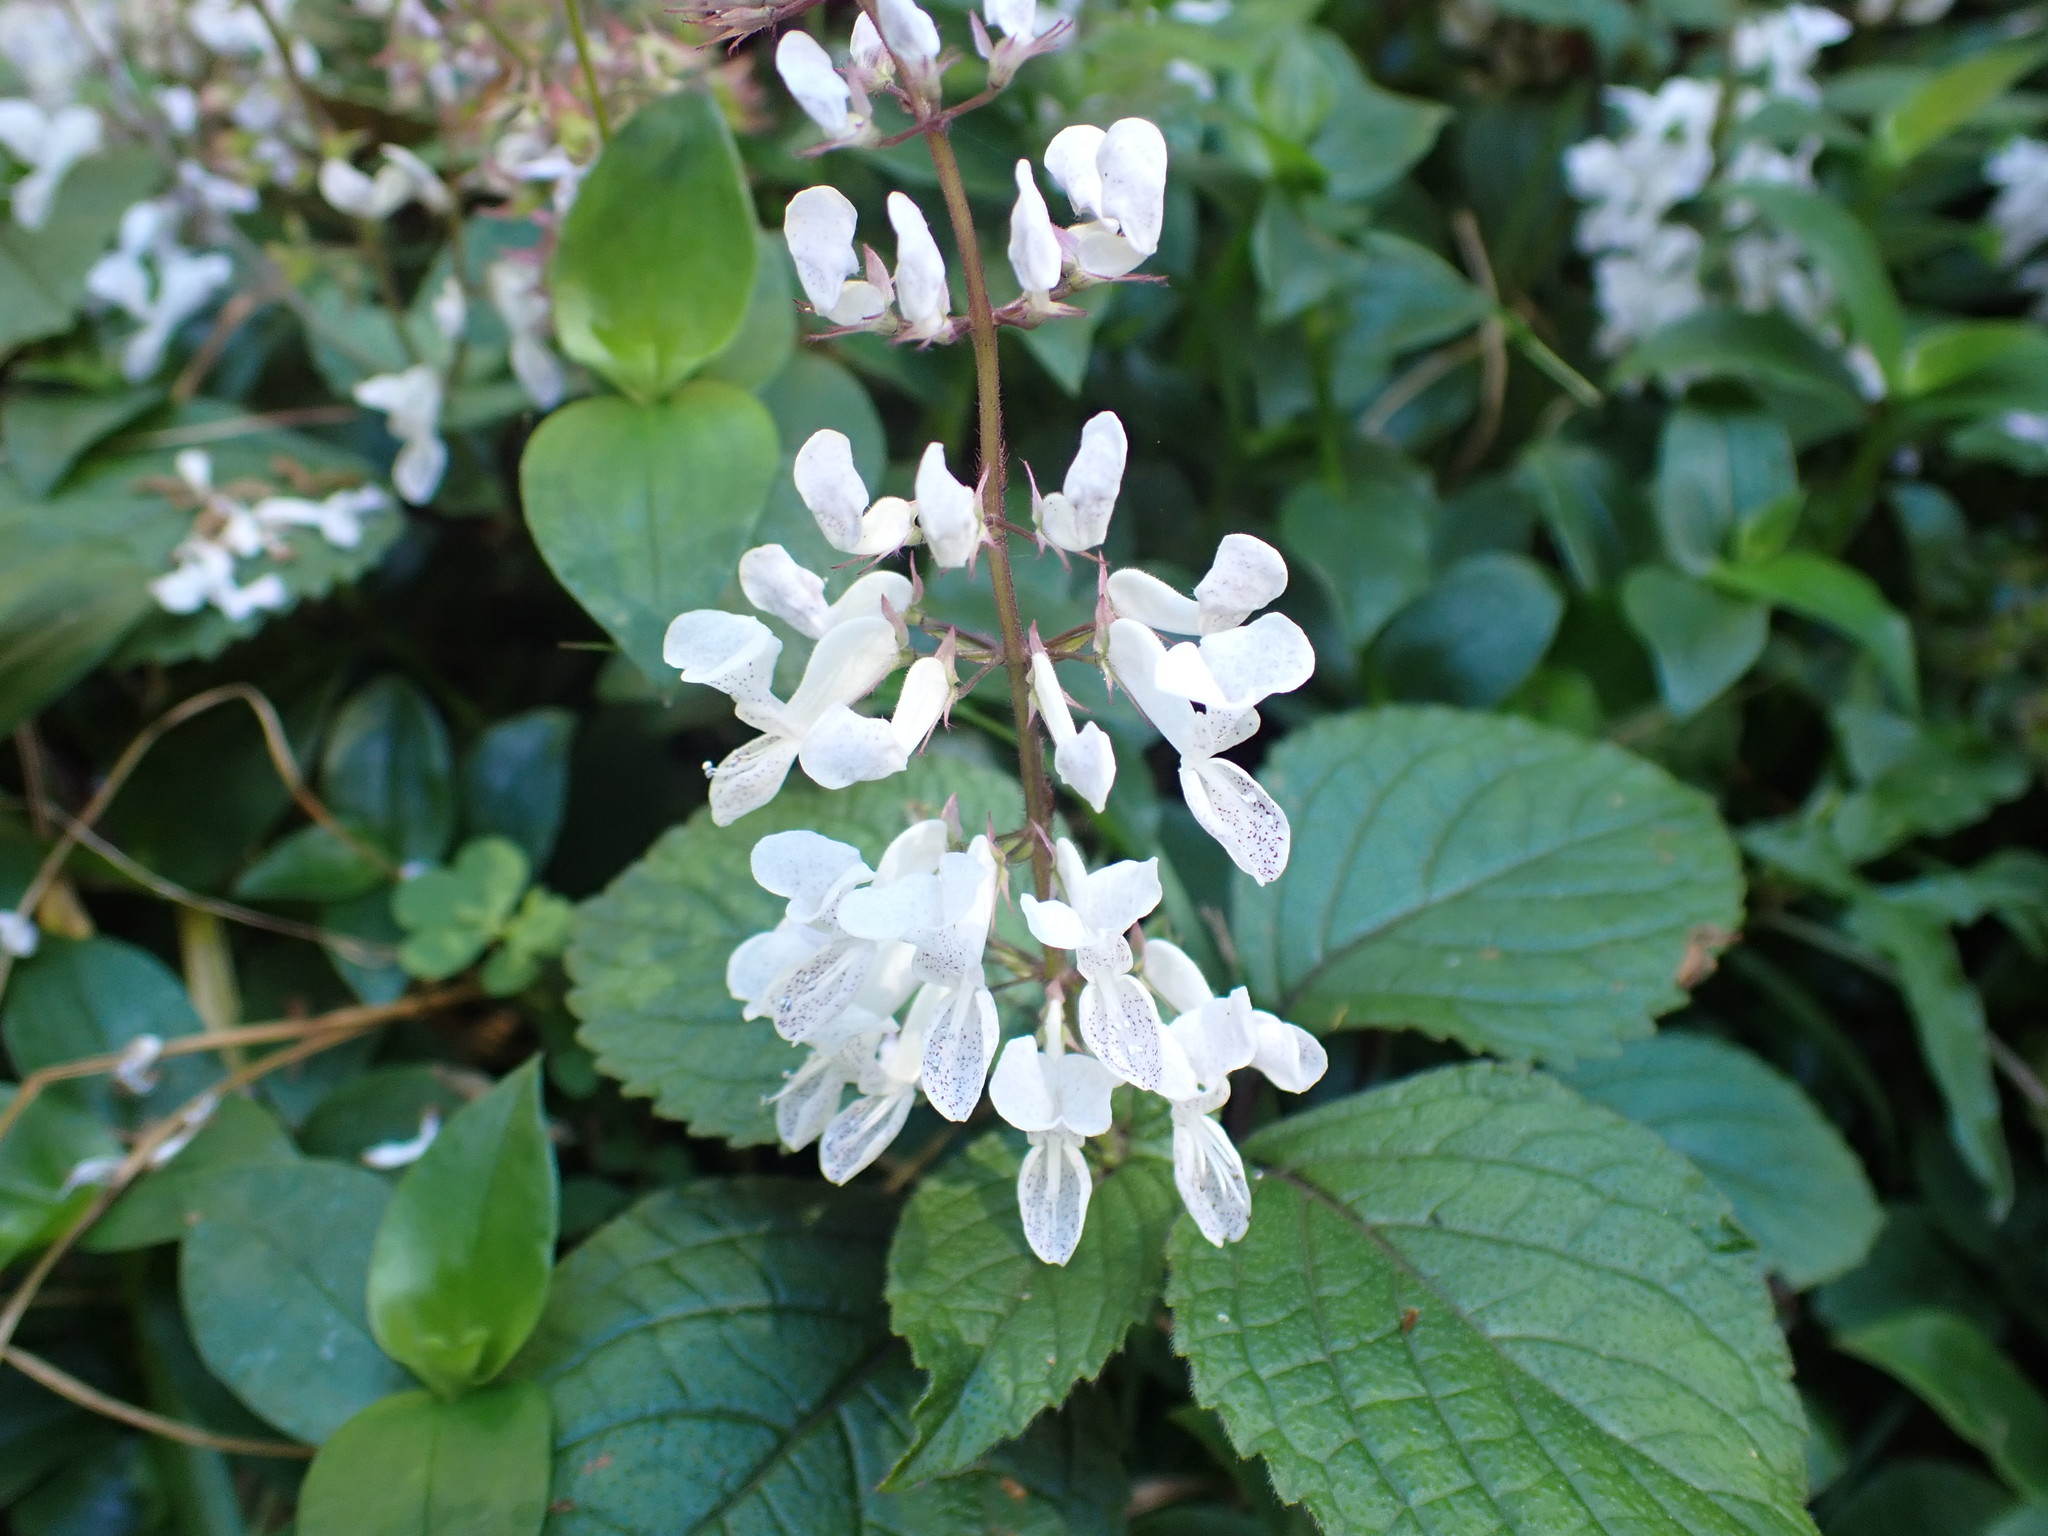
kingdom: Plantae
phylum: Tracheophyta
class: Magnoliopsida
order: Lamiales
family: Lamiaceae
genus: Plectranthus
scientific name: Plectranthus ciliatus
